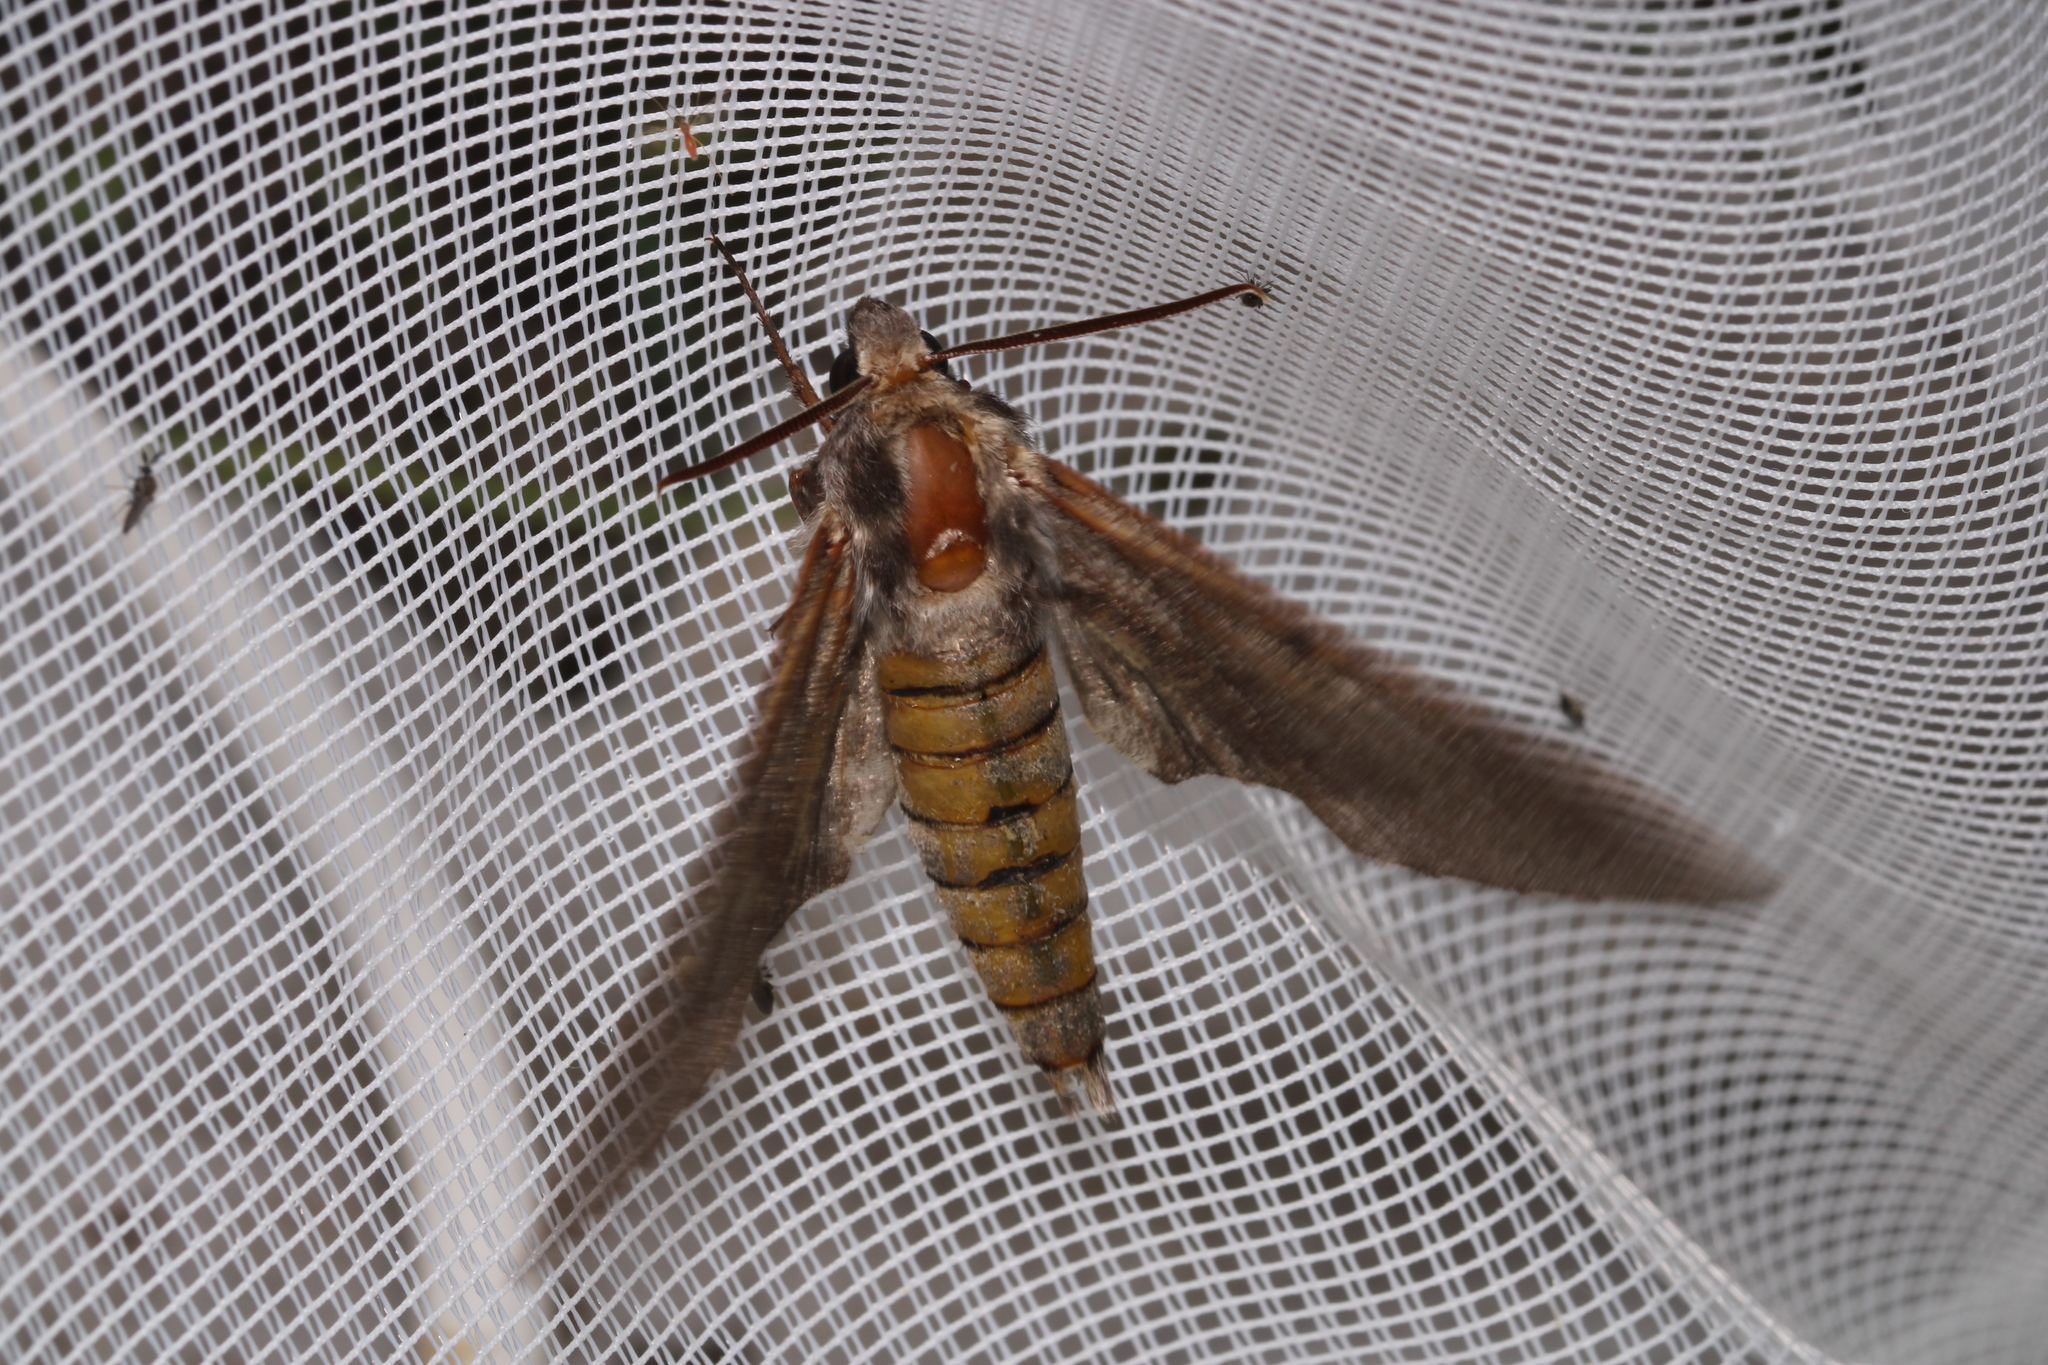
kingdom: Animalia
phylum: Arthropoda
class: Insecta
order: Lepidoptera
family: Sphingidae
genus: Sphinx
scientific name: Sphinx pinastri
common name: Pine hawk-moth
